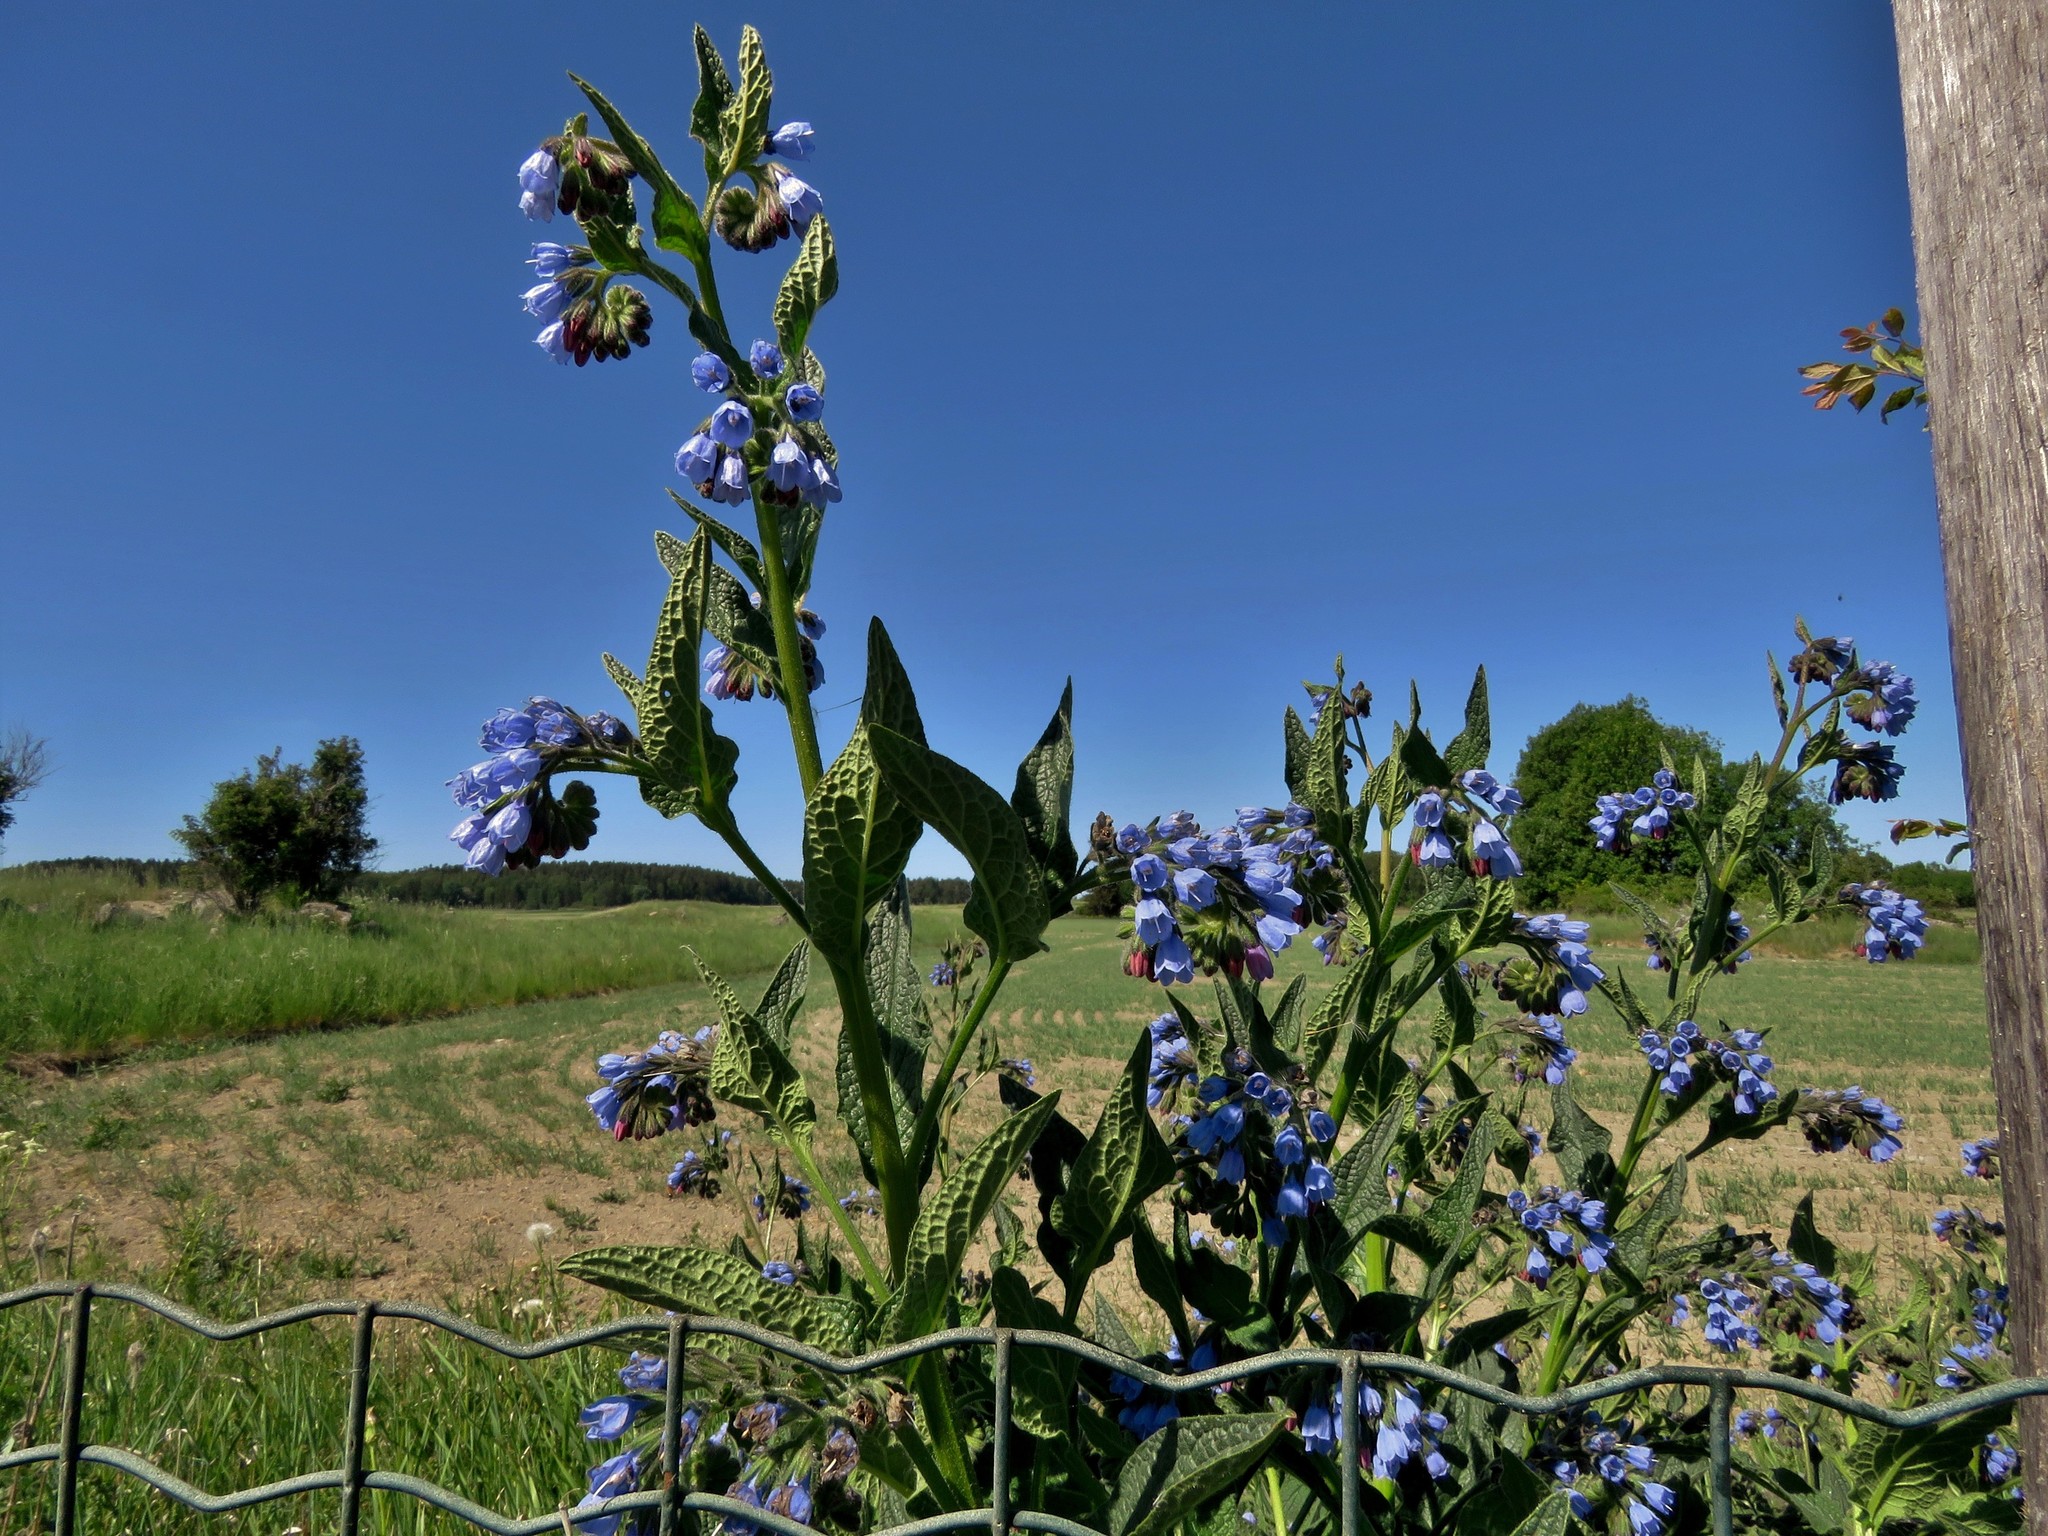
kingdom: Plantae
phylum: Tracheophyta
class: Magnoliopsida
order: Boraginales
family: Boraginaceae
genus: Symphytum
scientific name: Symphytum caucasicum
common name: Caucasian comfrey
